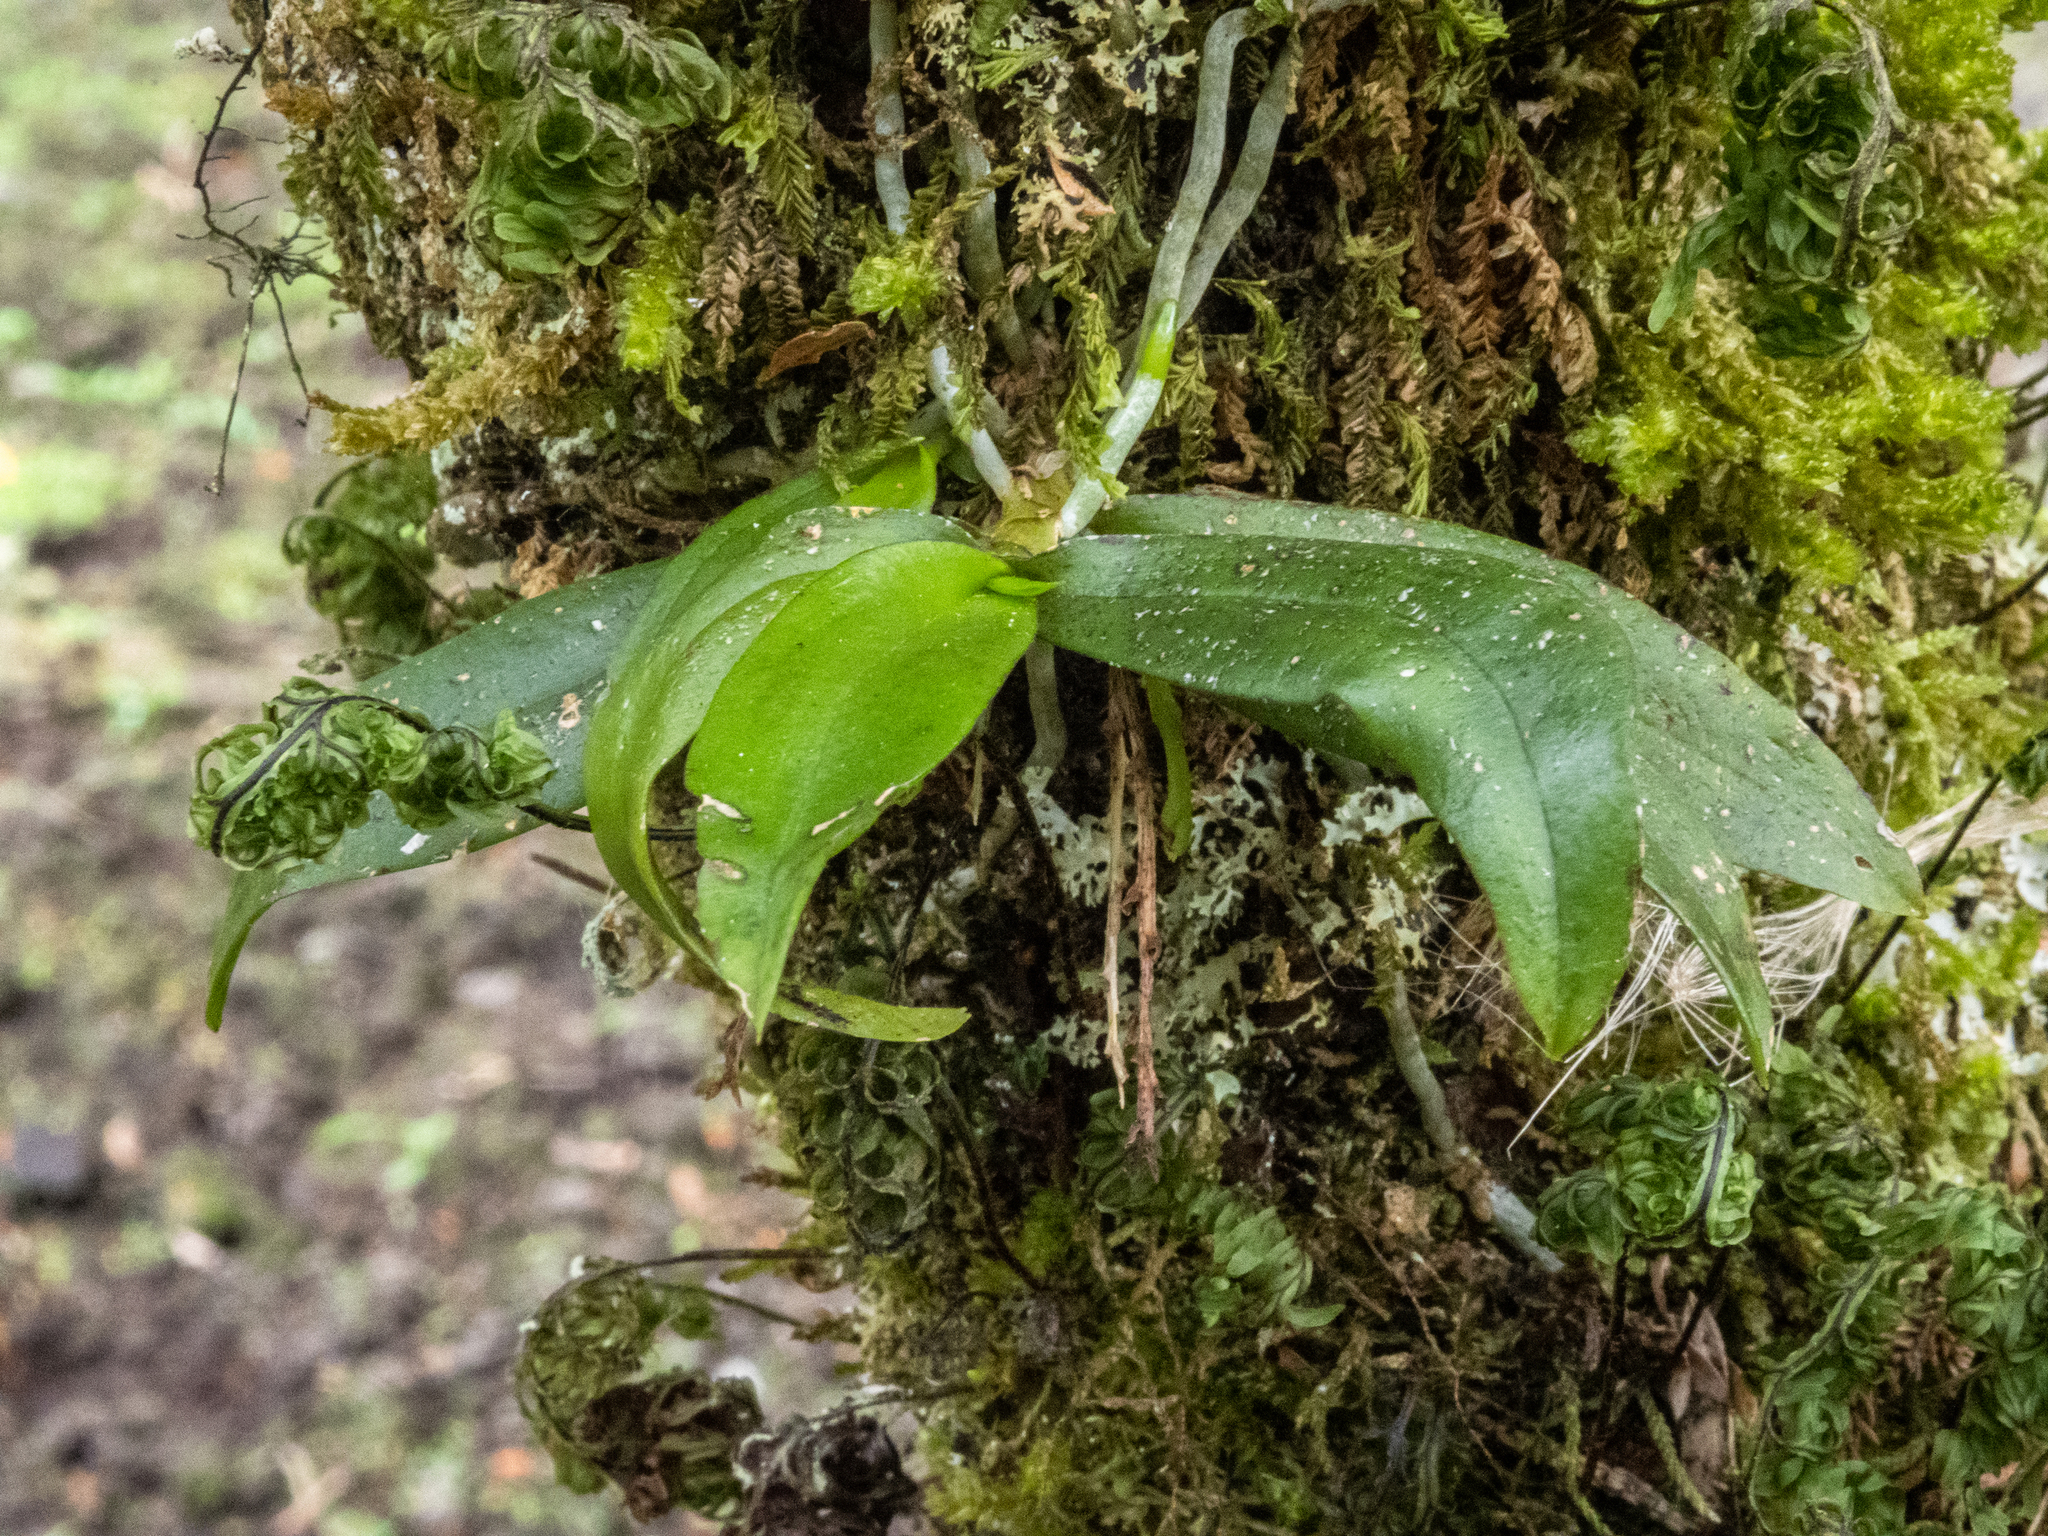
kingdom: Plantae
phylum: Tracheophyta
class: Liliopsida
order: Asparagales
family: Orchidaceae
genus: Drymoanthus
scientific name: Drymoanthus adversus
